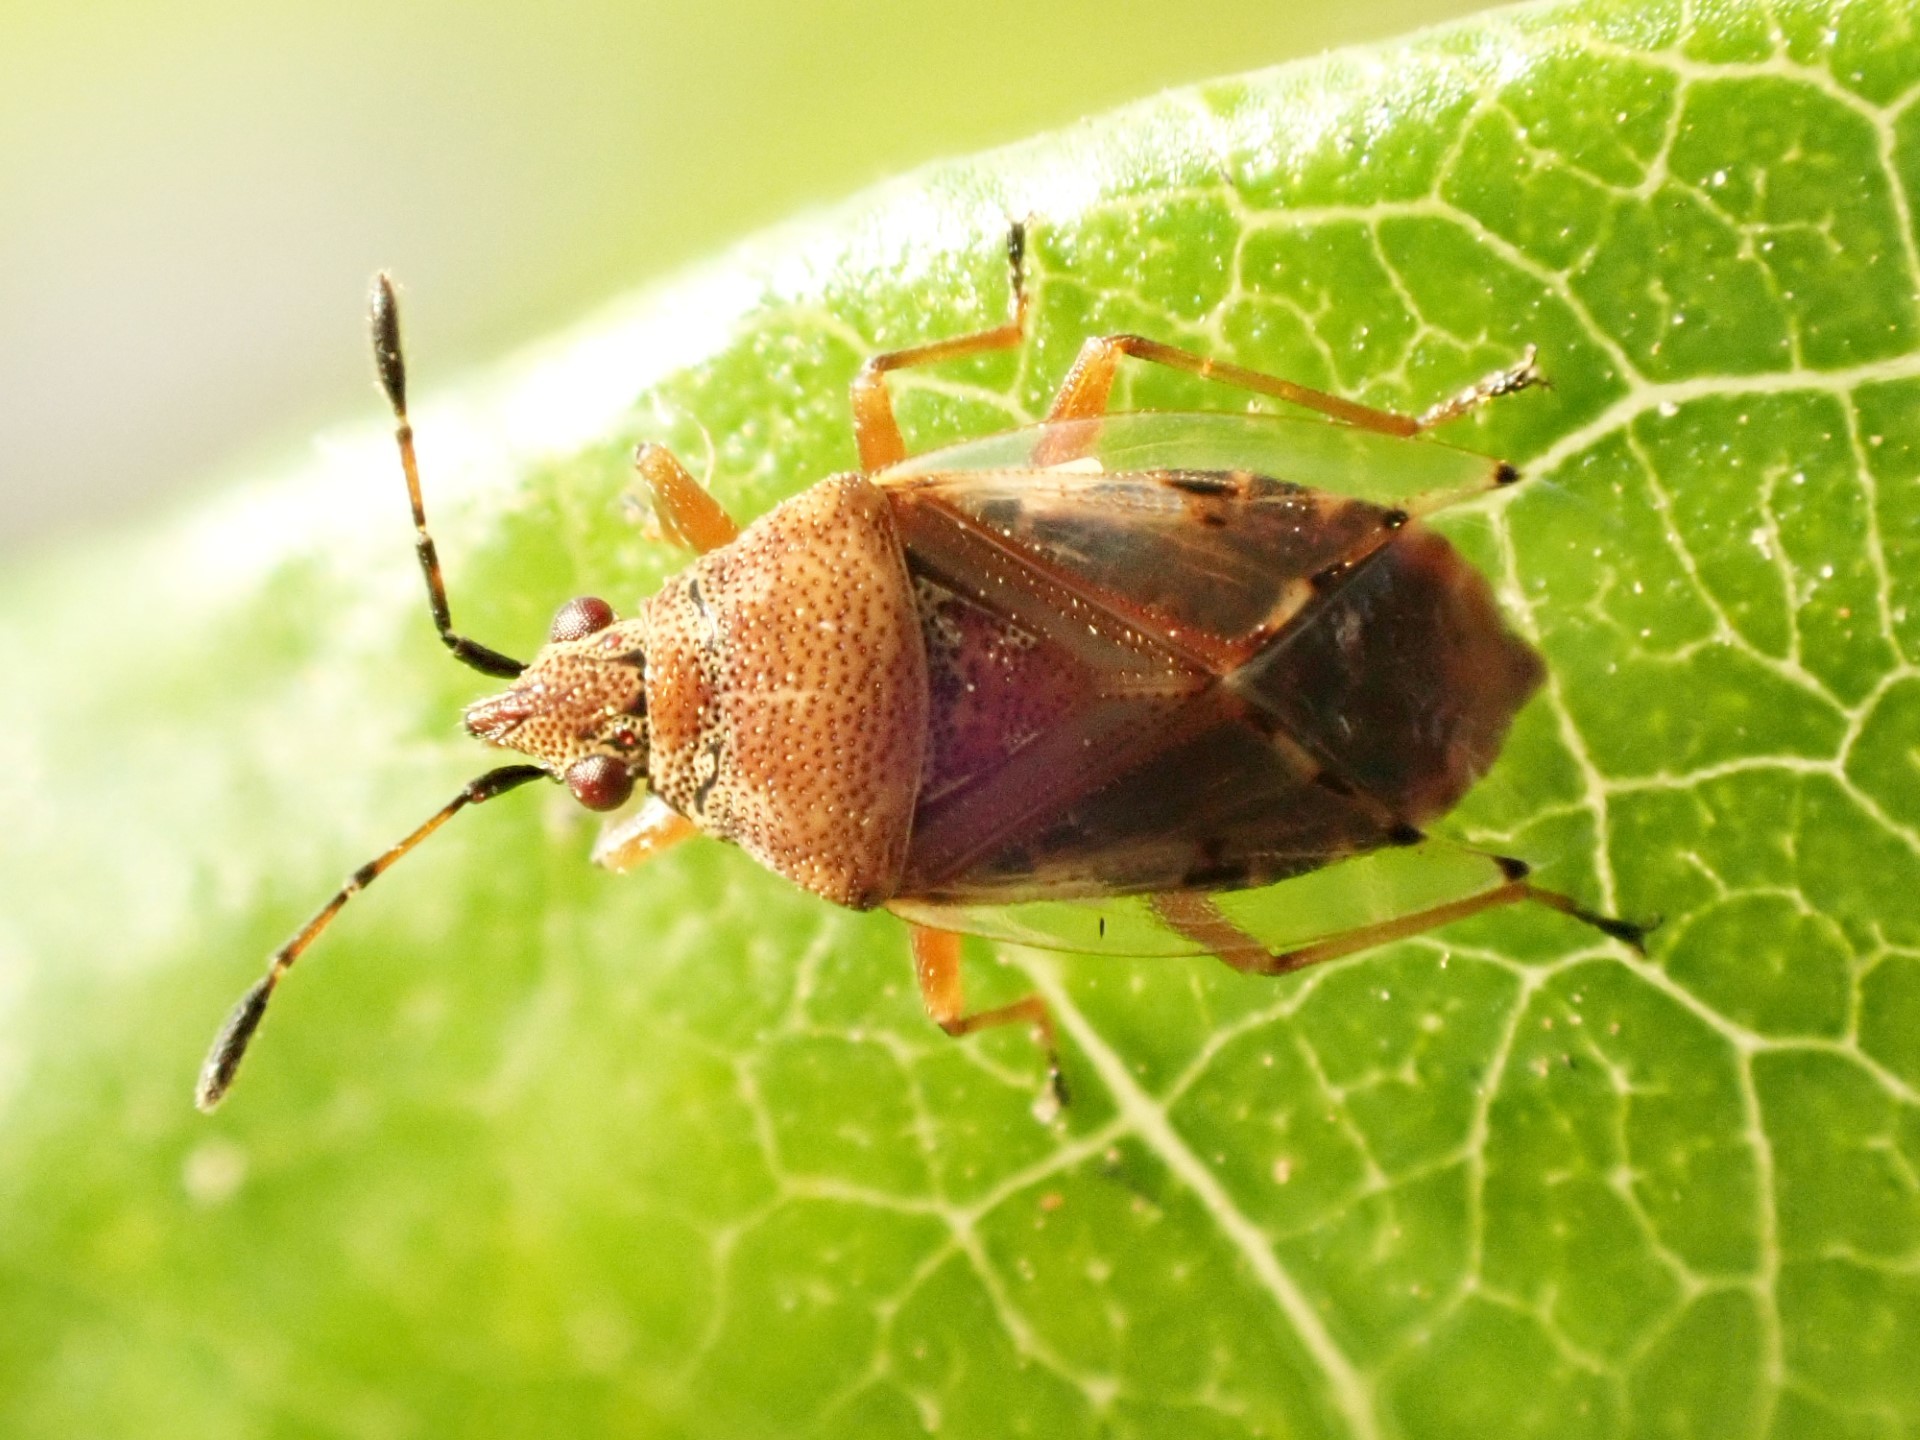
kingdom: Animalia
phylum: Arthropoda
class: Insecta
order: Hemiptera
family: Lygaeidae
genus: Kleidocerys
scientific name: Kleidocerys resedae
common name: Birch catkin bug
